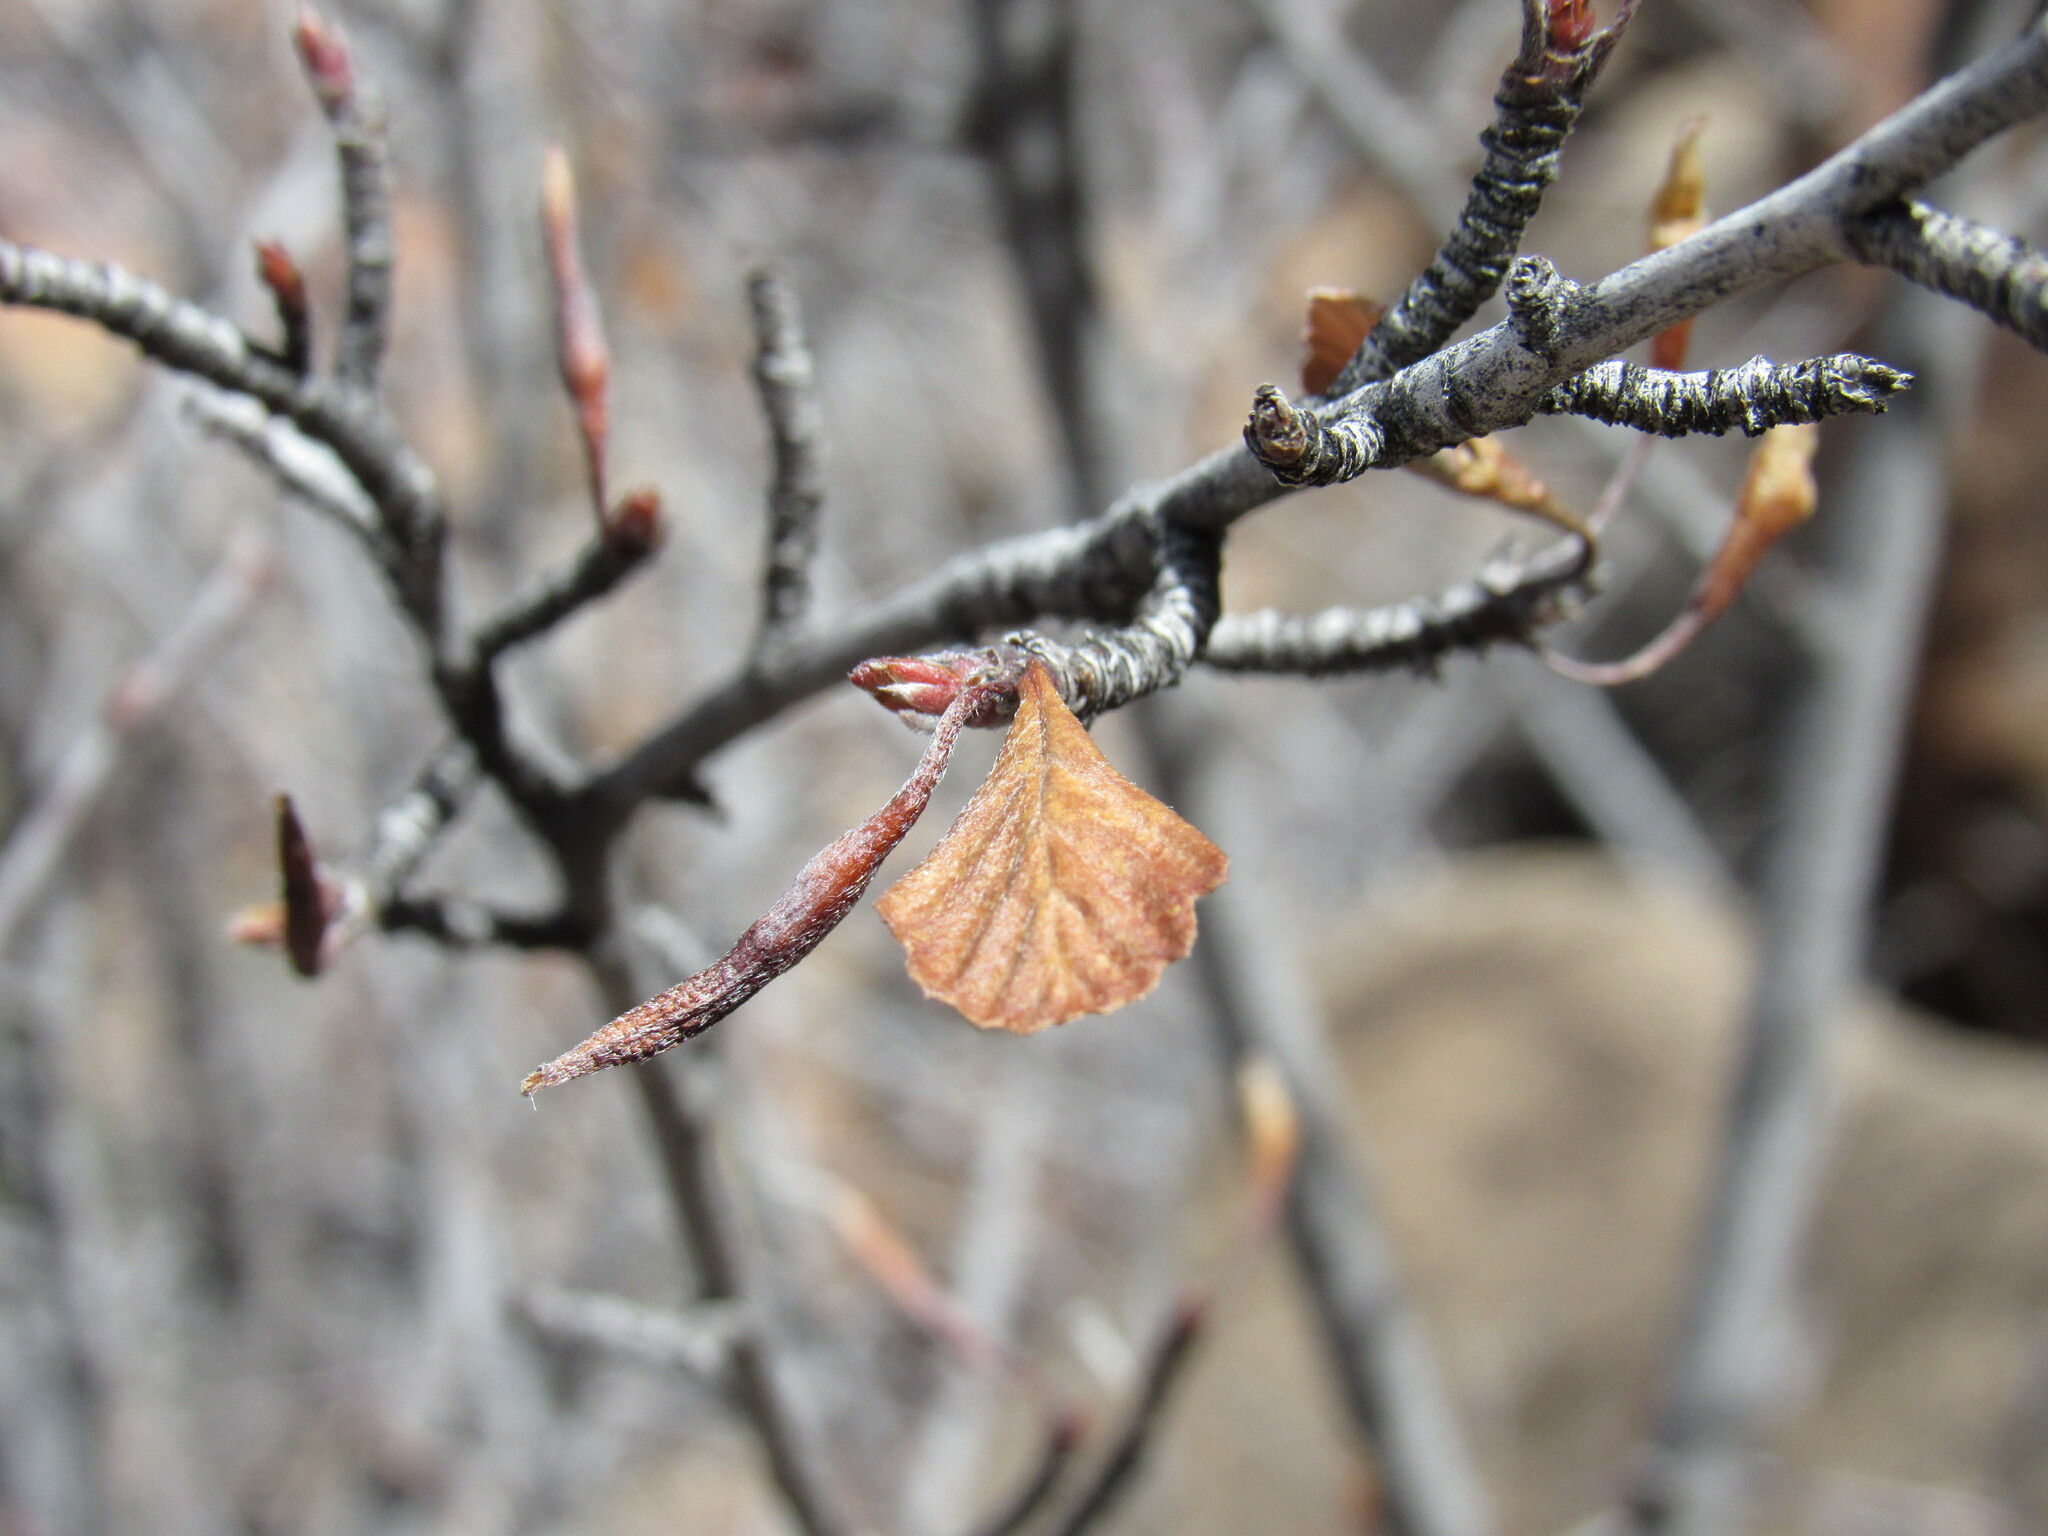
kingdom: Plantae
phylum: Tracheophyta
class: Magnoliopsida
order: Rosales
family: Rosaceae
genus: Cercocarpus
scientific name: Cercocarpus montanus
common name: Alder-leaf cercocarpus
